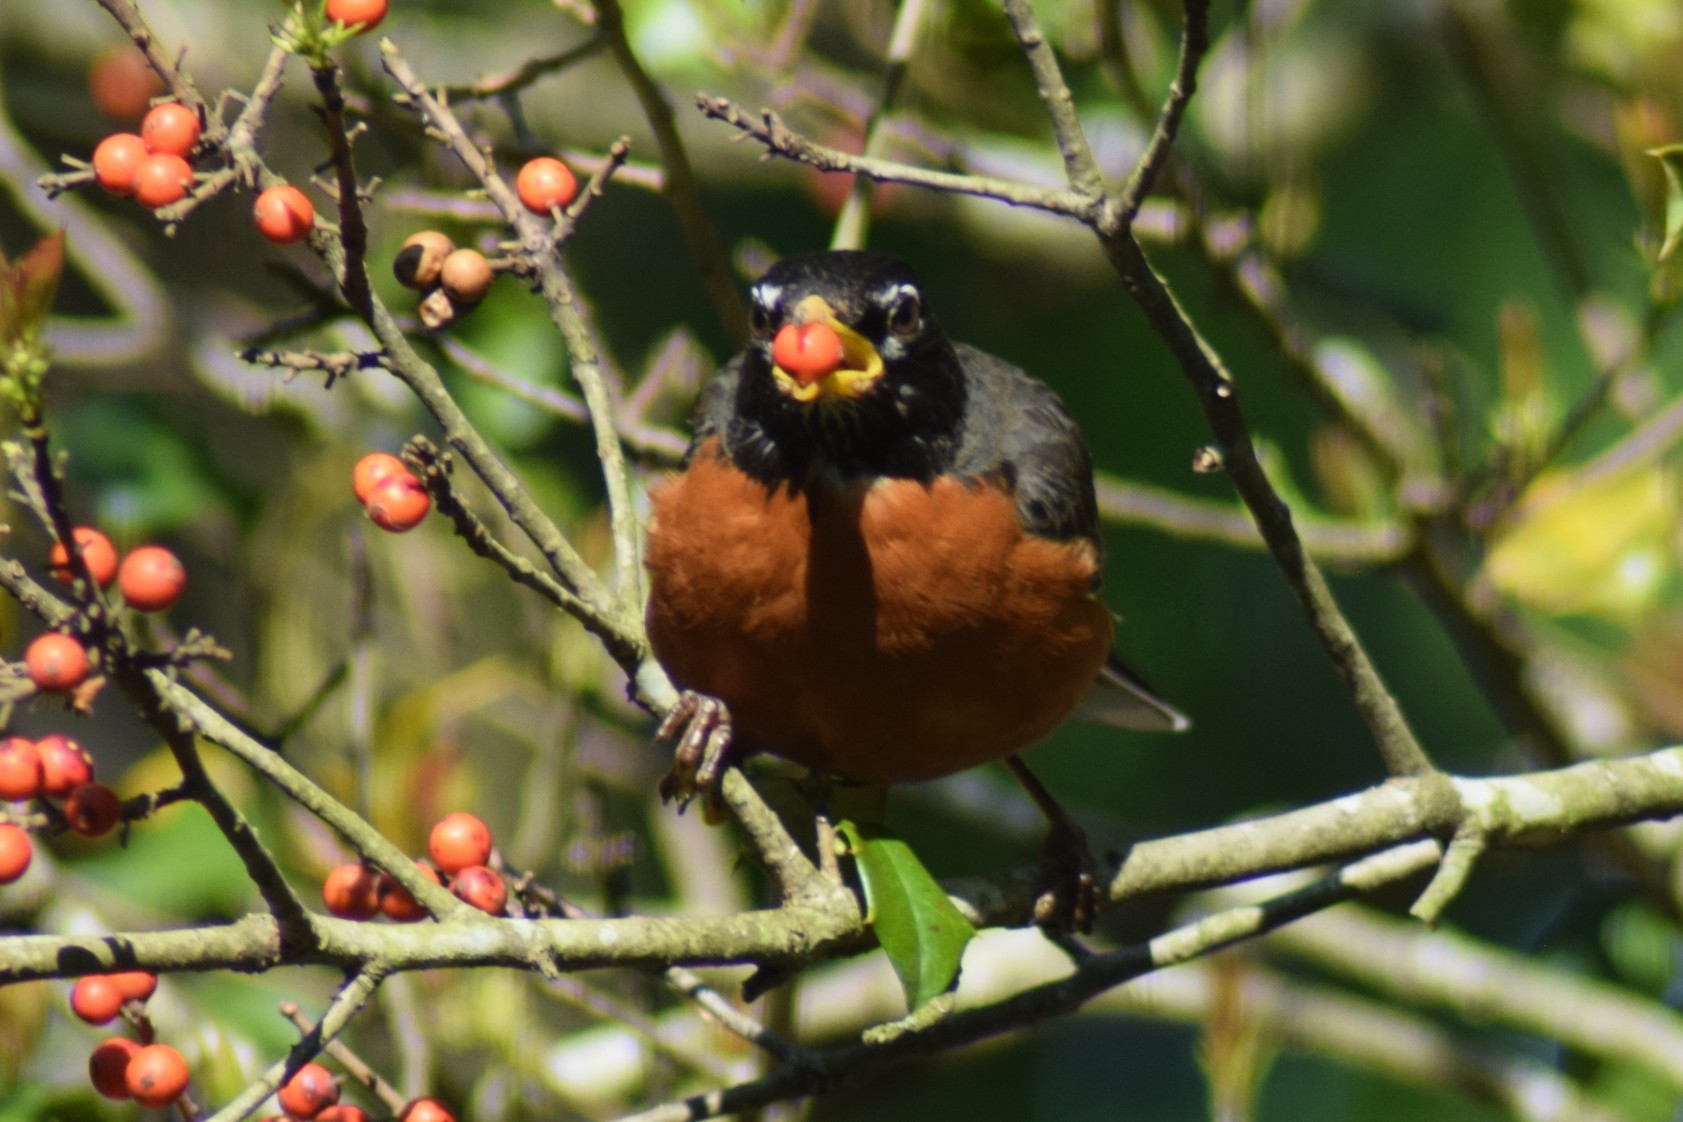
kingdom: Animalia
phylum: Chordata
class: Aves
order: Passeriformes
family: Turdidae
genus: Turdus
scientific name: Turdus migratorius
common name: American robin
